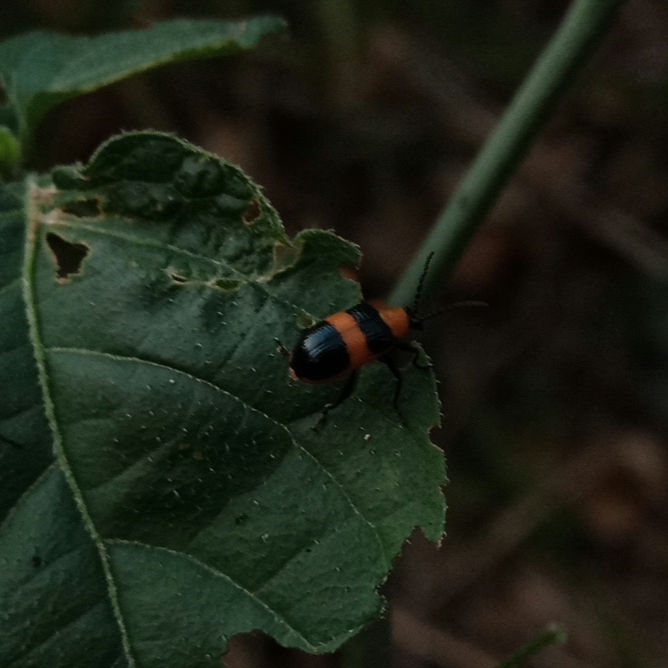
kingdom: Animalia
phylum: Arthropoda
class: Insecta
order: Coleoptera
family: Chrysomelidae
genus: Lema
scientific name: Lema solani
